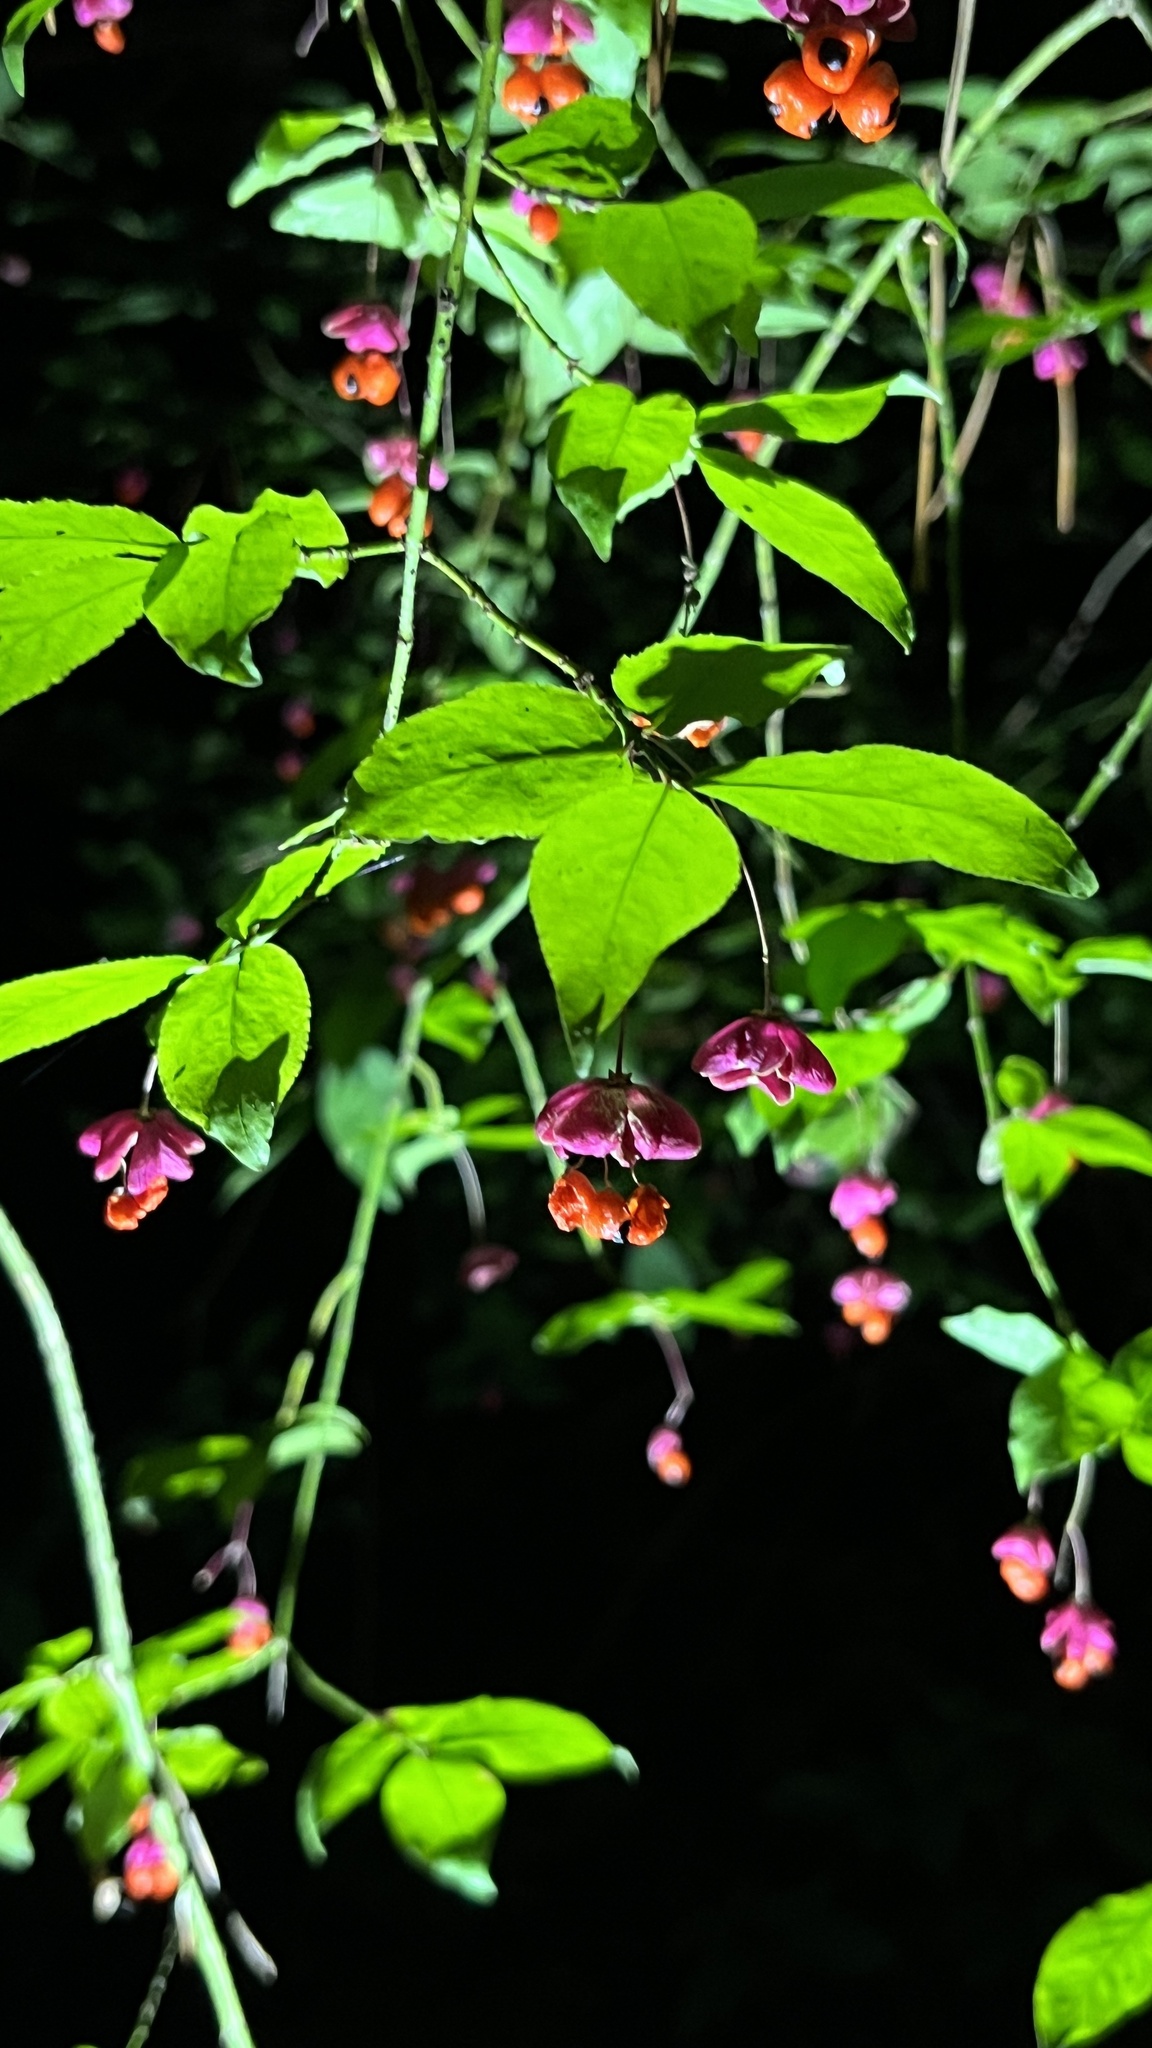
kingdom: Plantae
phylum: Tracheophyta
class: Magnoliopsida
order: Celastrales
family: Celastraceae
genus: Euonymus
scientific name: Euonymus verrucosus
